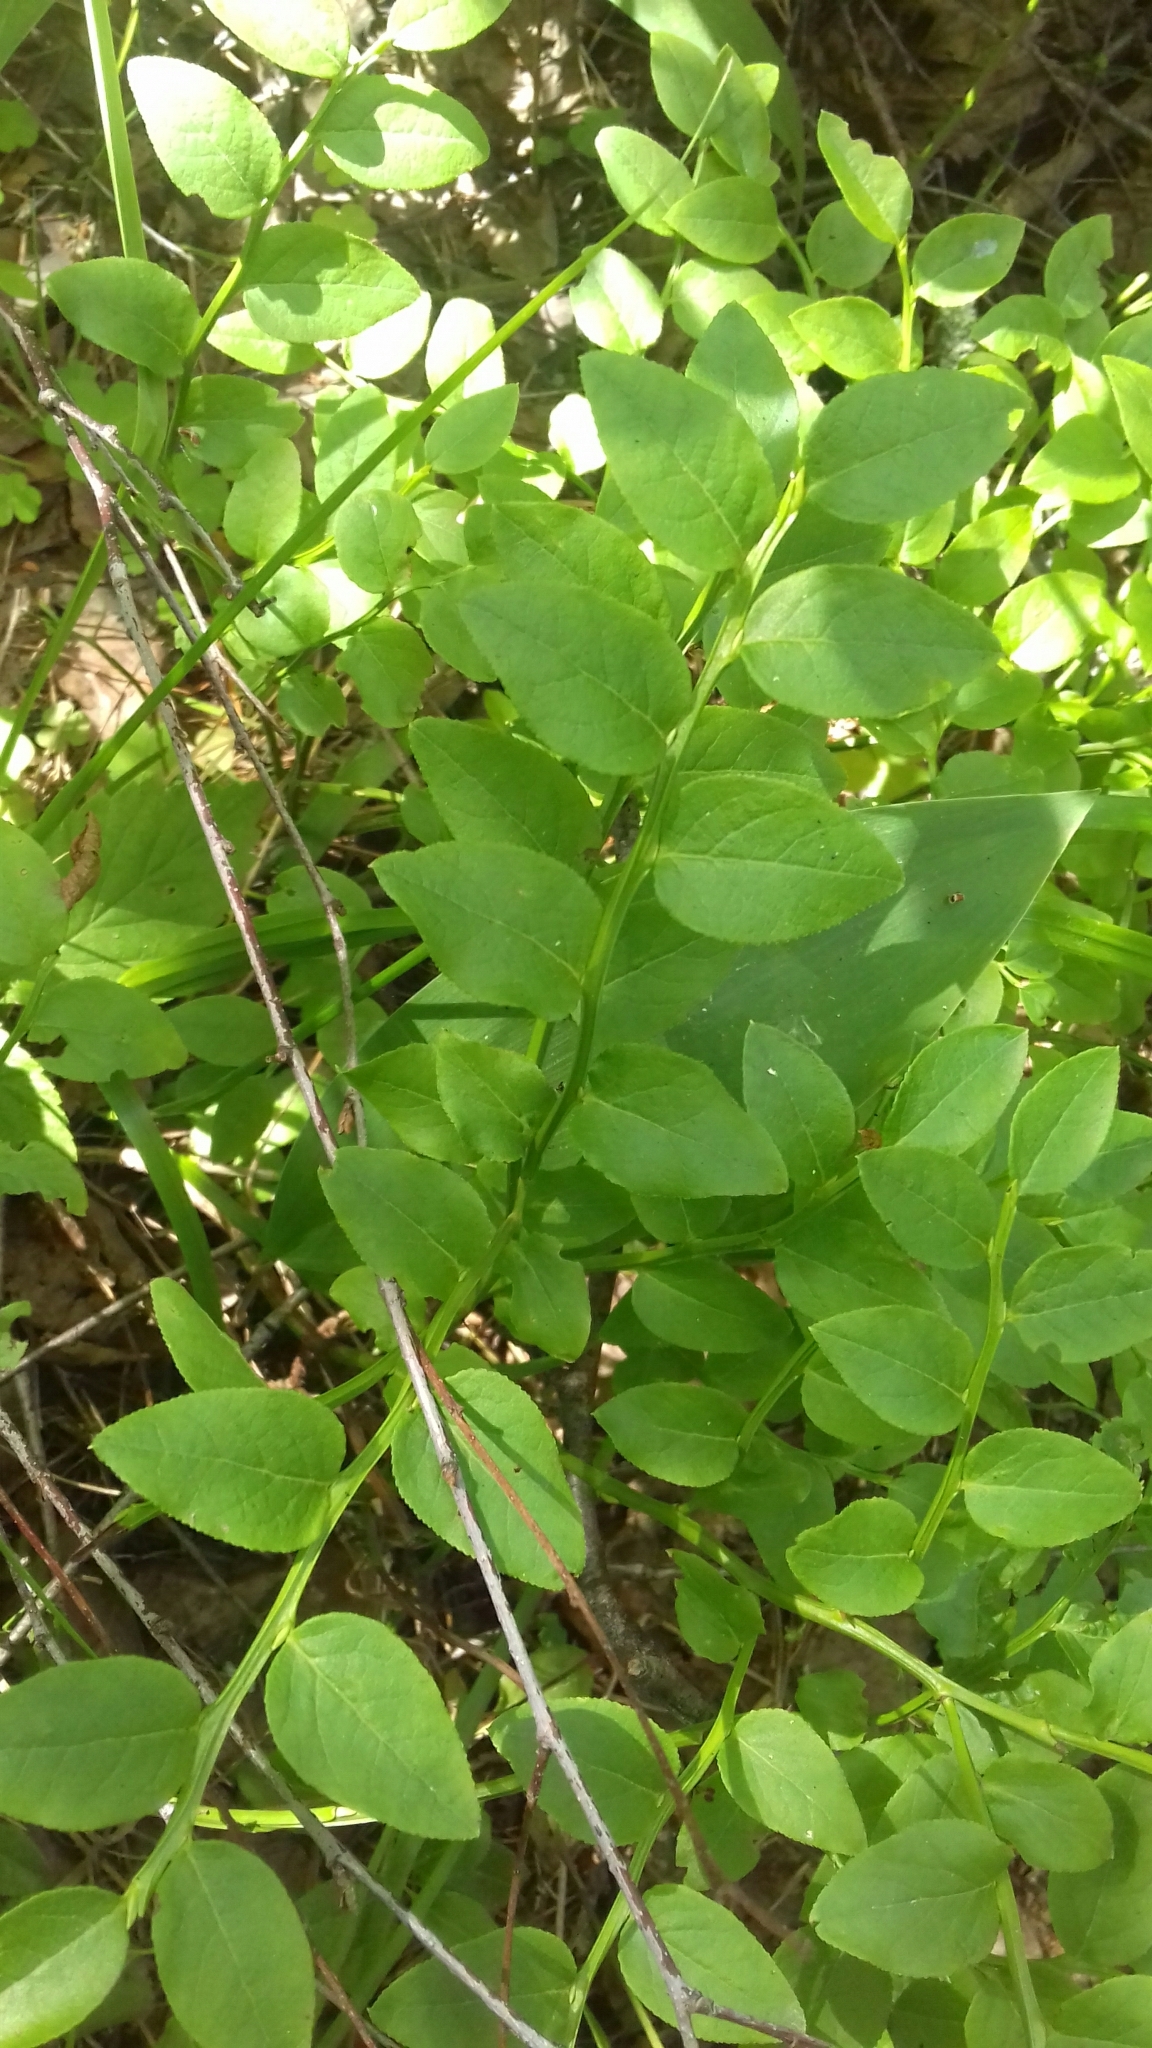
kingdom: Plantae
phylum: Tracheophyta
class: Magnoliopsida
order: Ericales
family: Ericaceae
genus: Vaccinium
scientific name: Vaccinium myrtillus
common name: Bilberry
